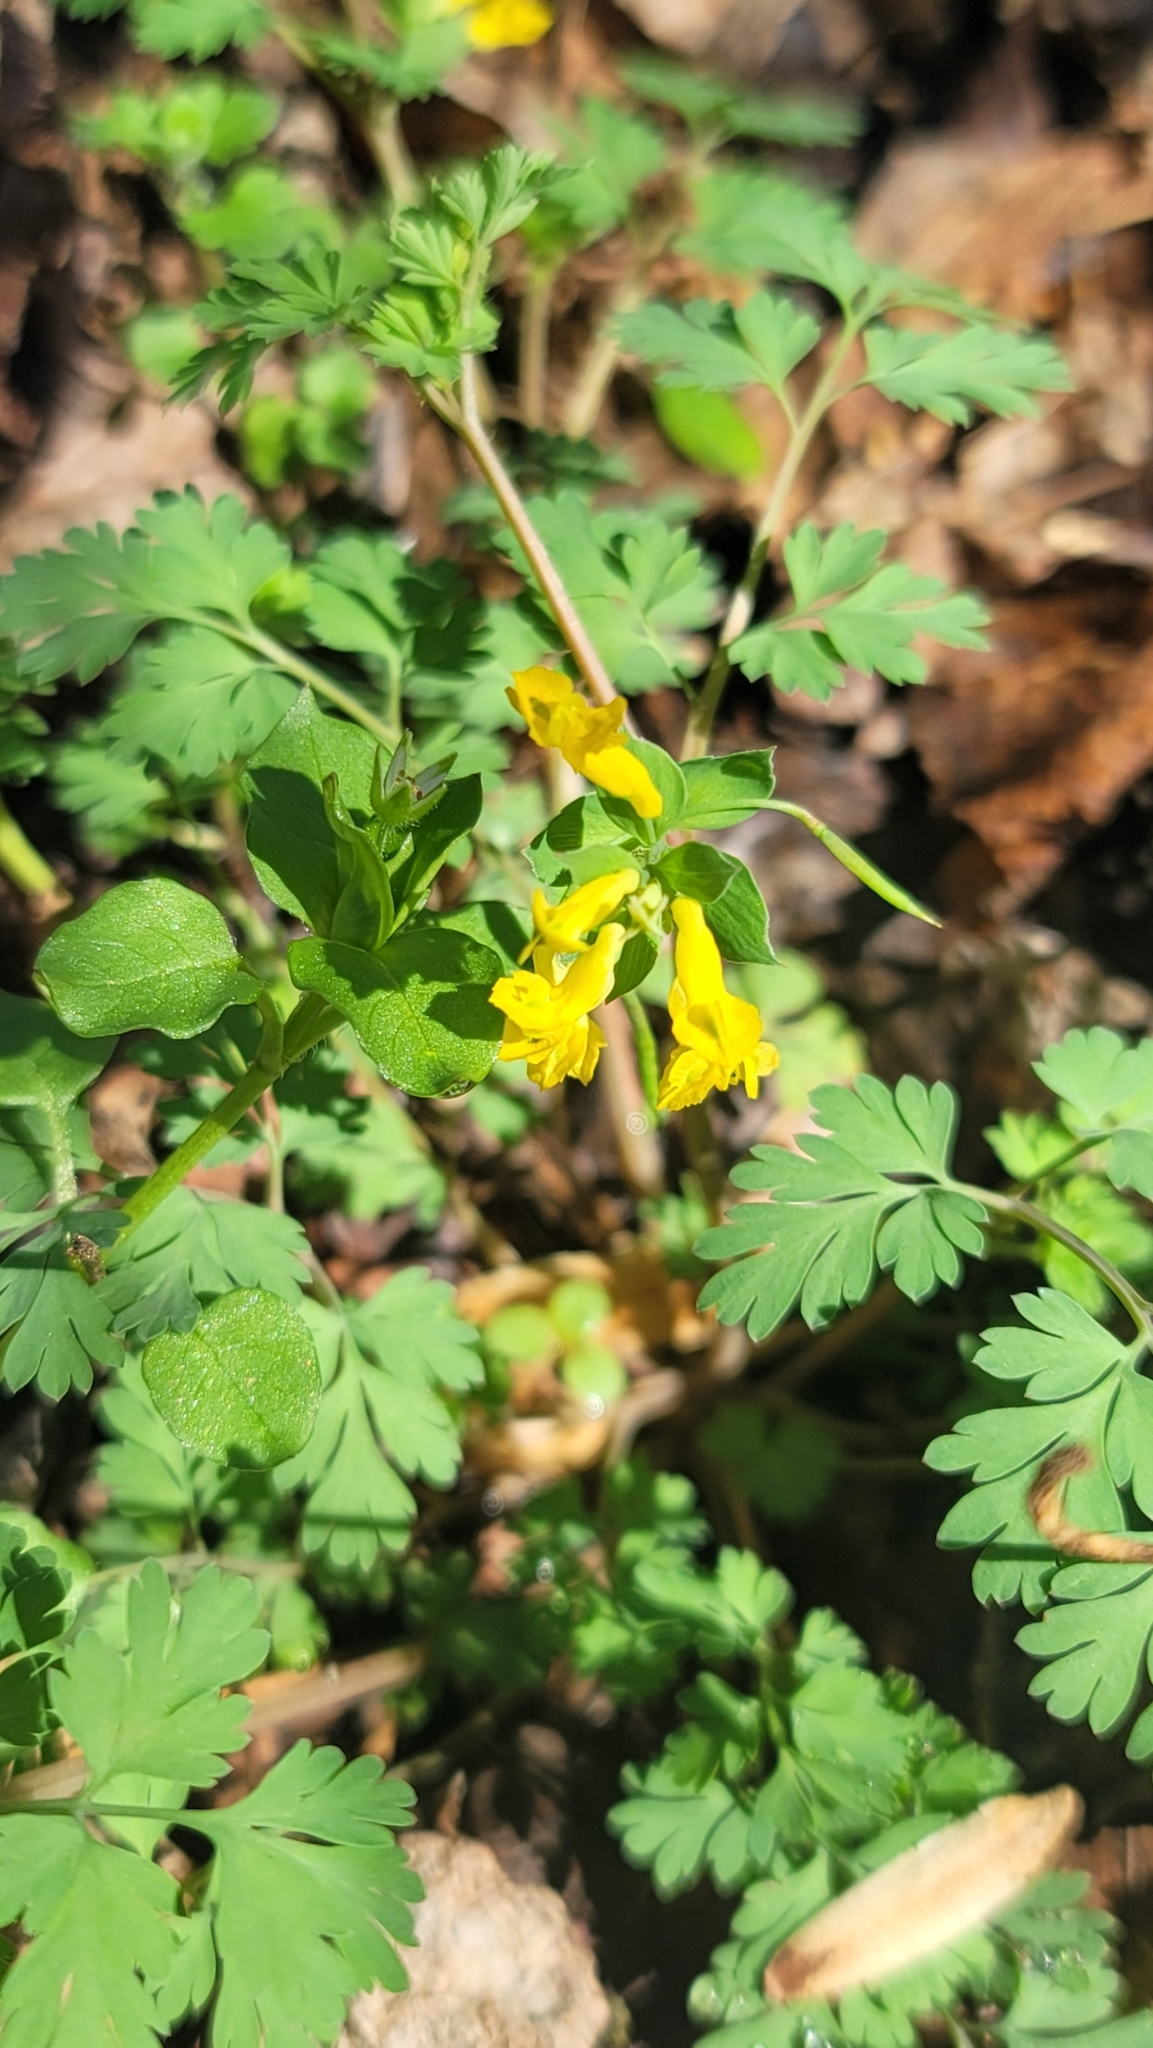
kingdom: Plantae
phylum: Tracheophyta
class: Magnoliopsida
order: Ranunculales
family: Papaveraceae
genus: Corydalis
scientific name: Corydalis flavula
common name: Yellow corydalis
